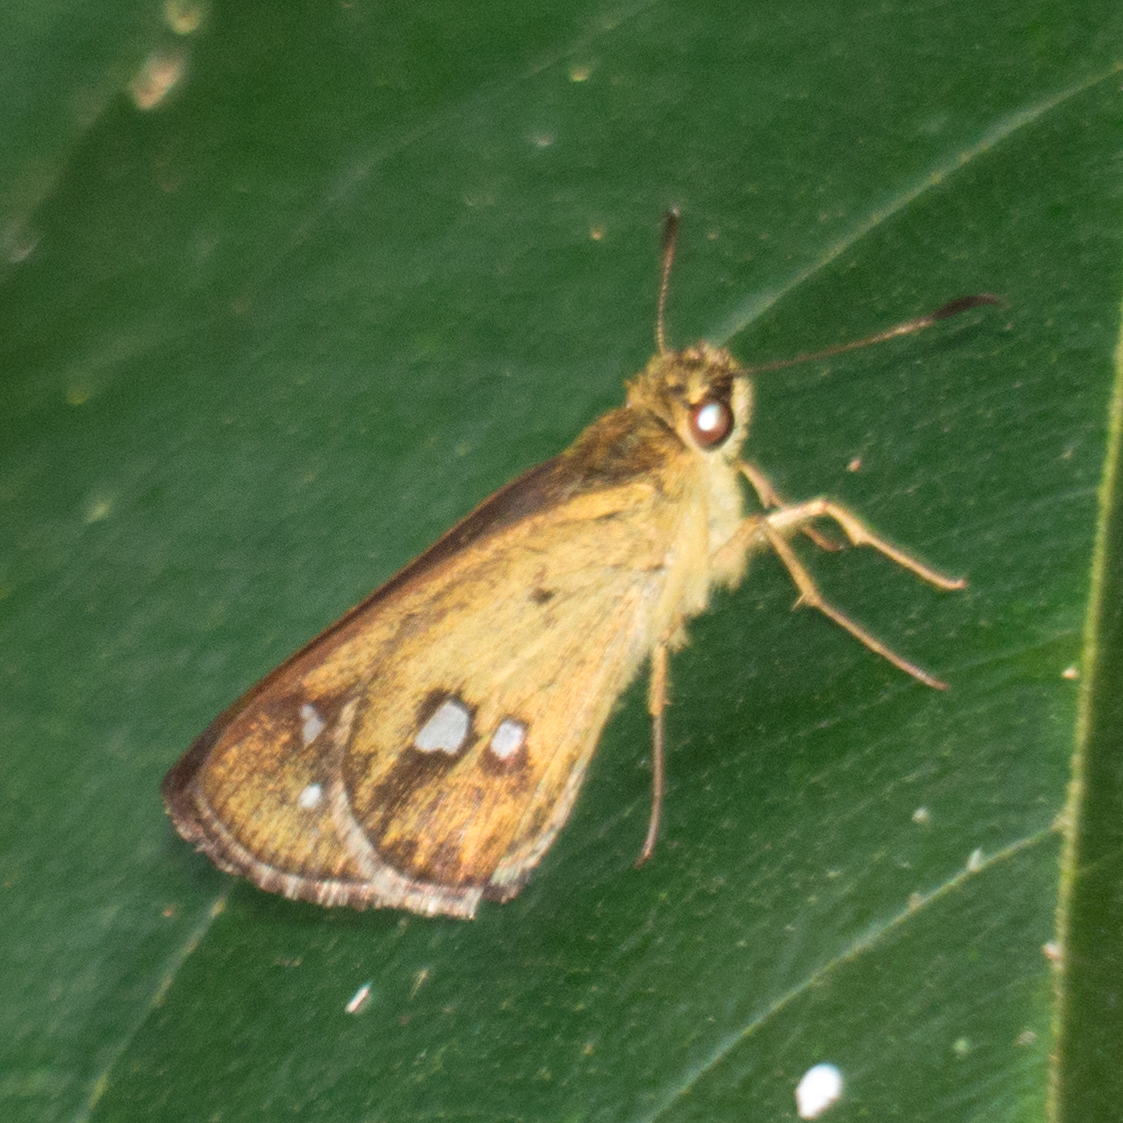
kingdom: Animalia
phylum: Arthropoda
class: Insecta
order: Lepidoptera
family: Hesperiidae
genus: Scobura
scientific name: Scobura isota
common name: Swinhoe's forest bob
